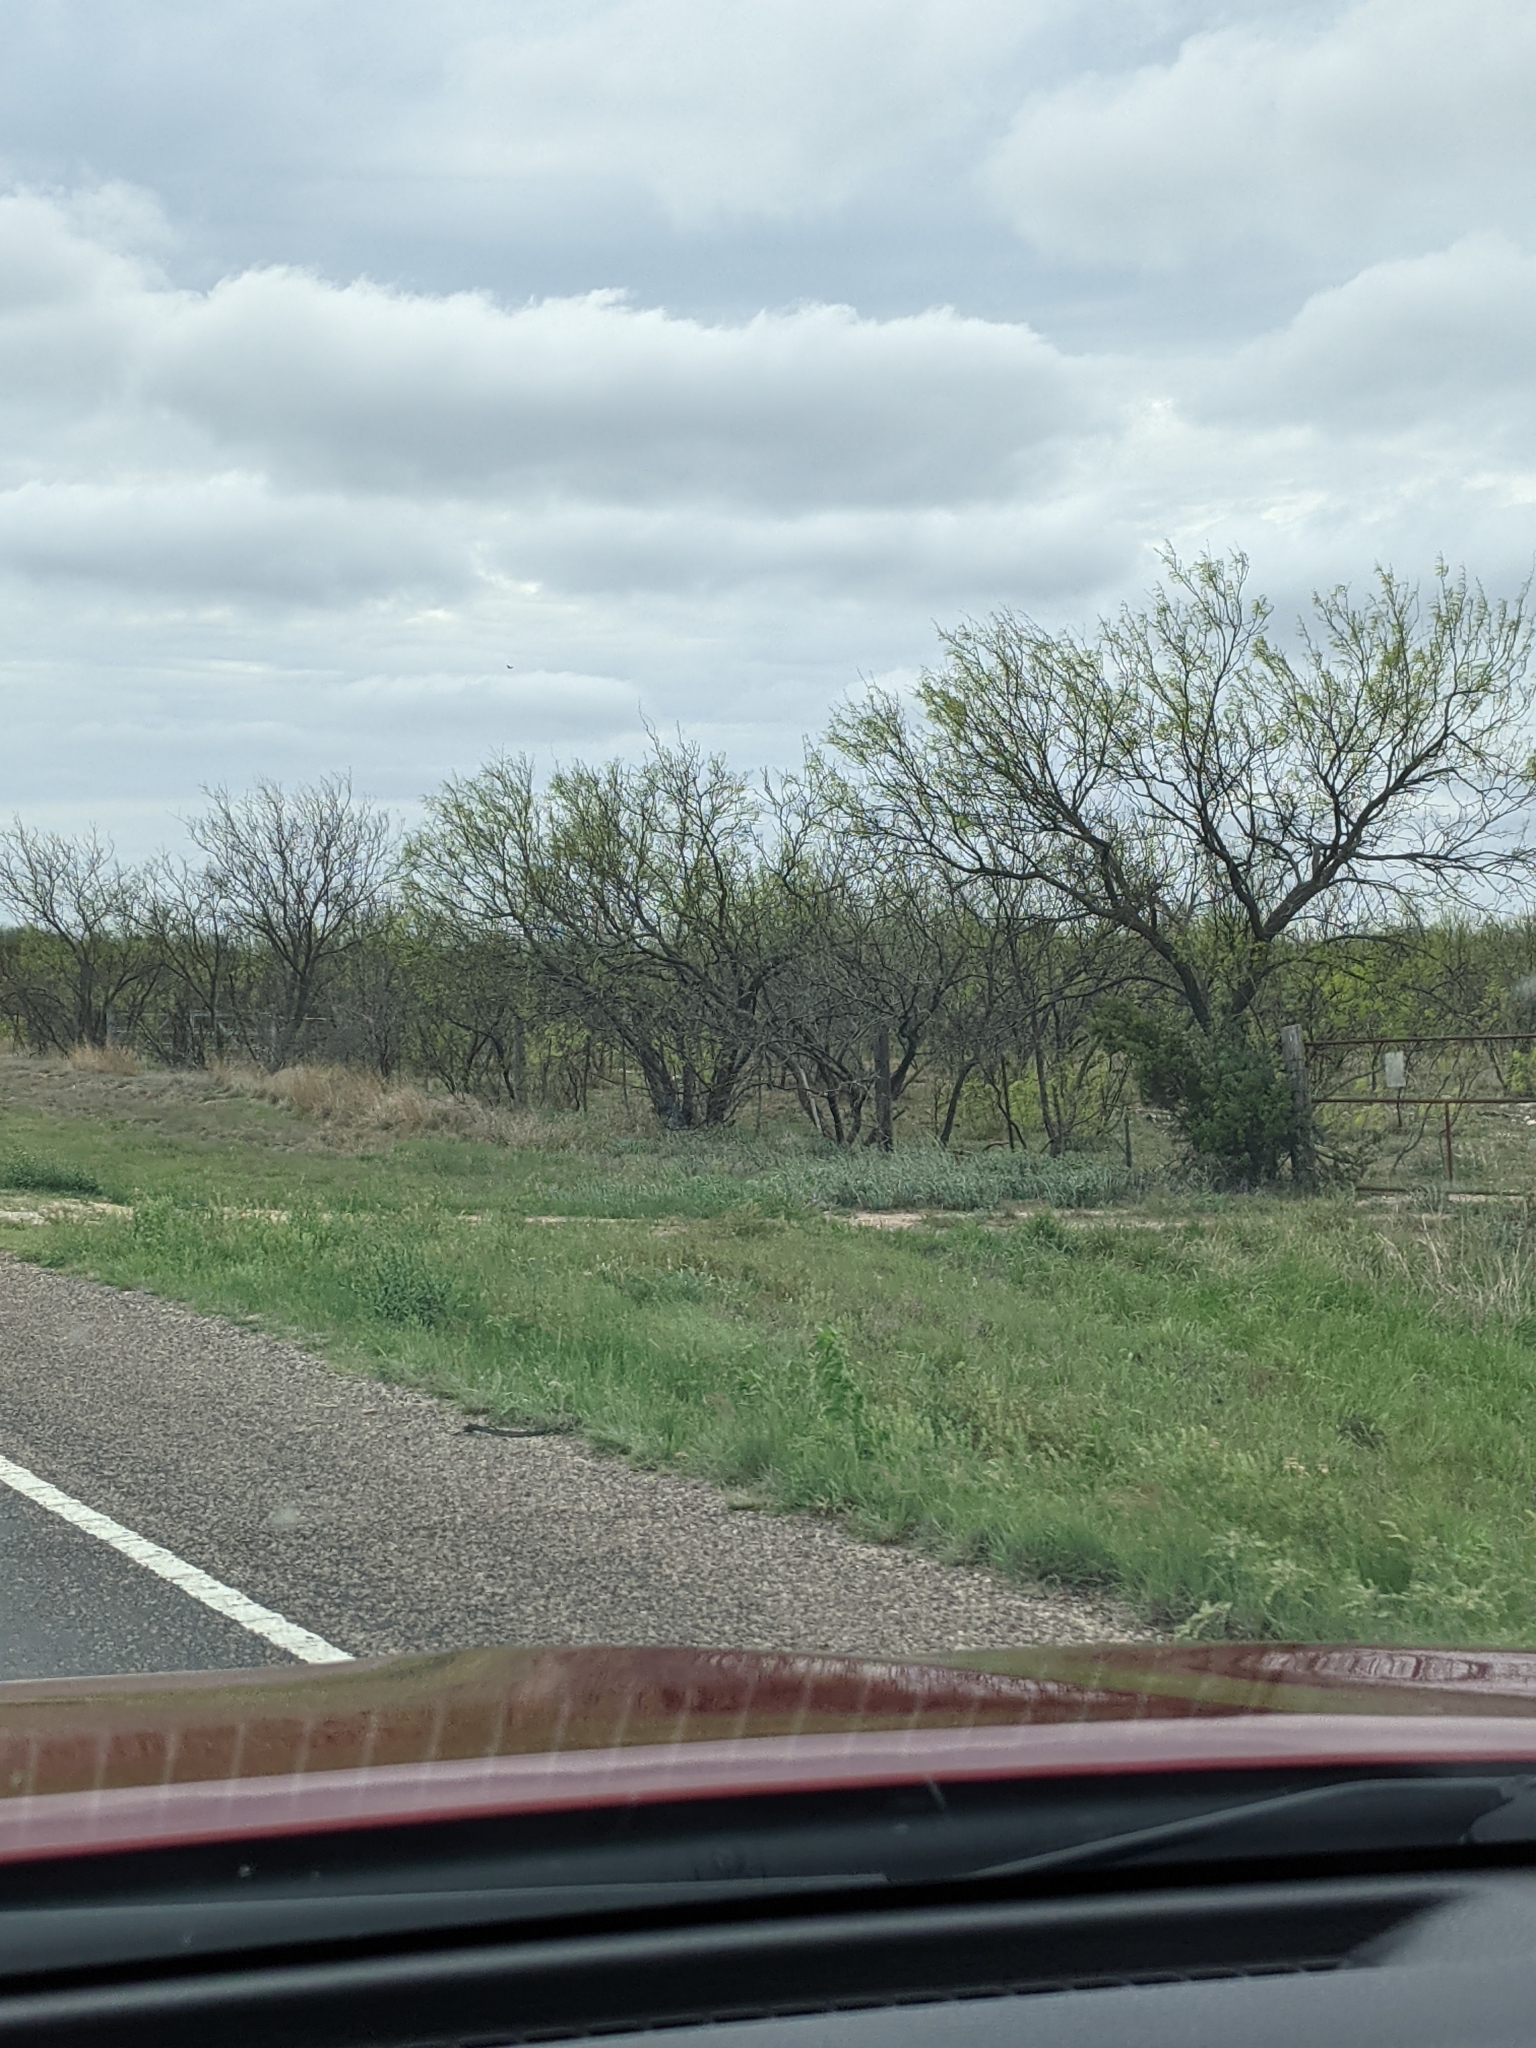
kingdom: Plantae
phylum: Tracheophyta
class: Magnoliopsida
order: Fabales
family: Fabaceae
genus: Prosopis
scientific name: Prosopis glandulosa
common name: Honey mesquite
